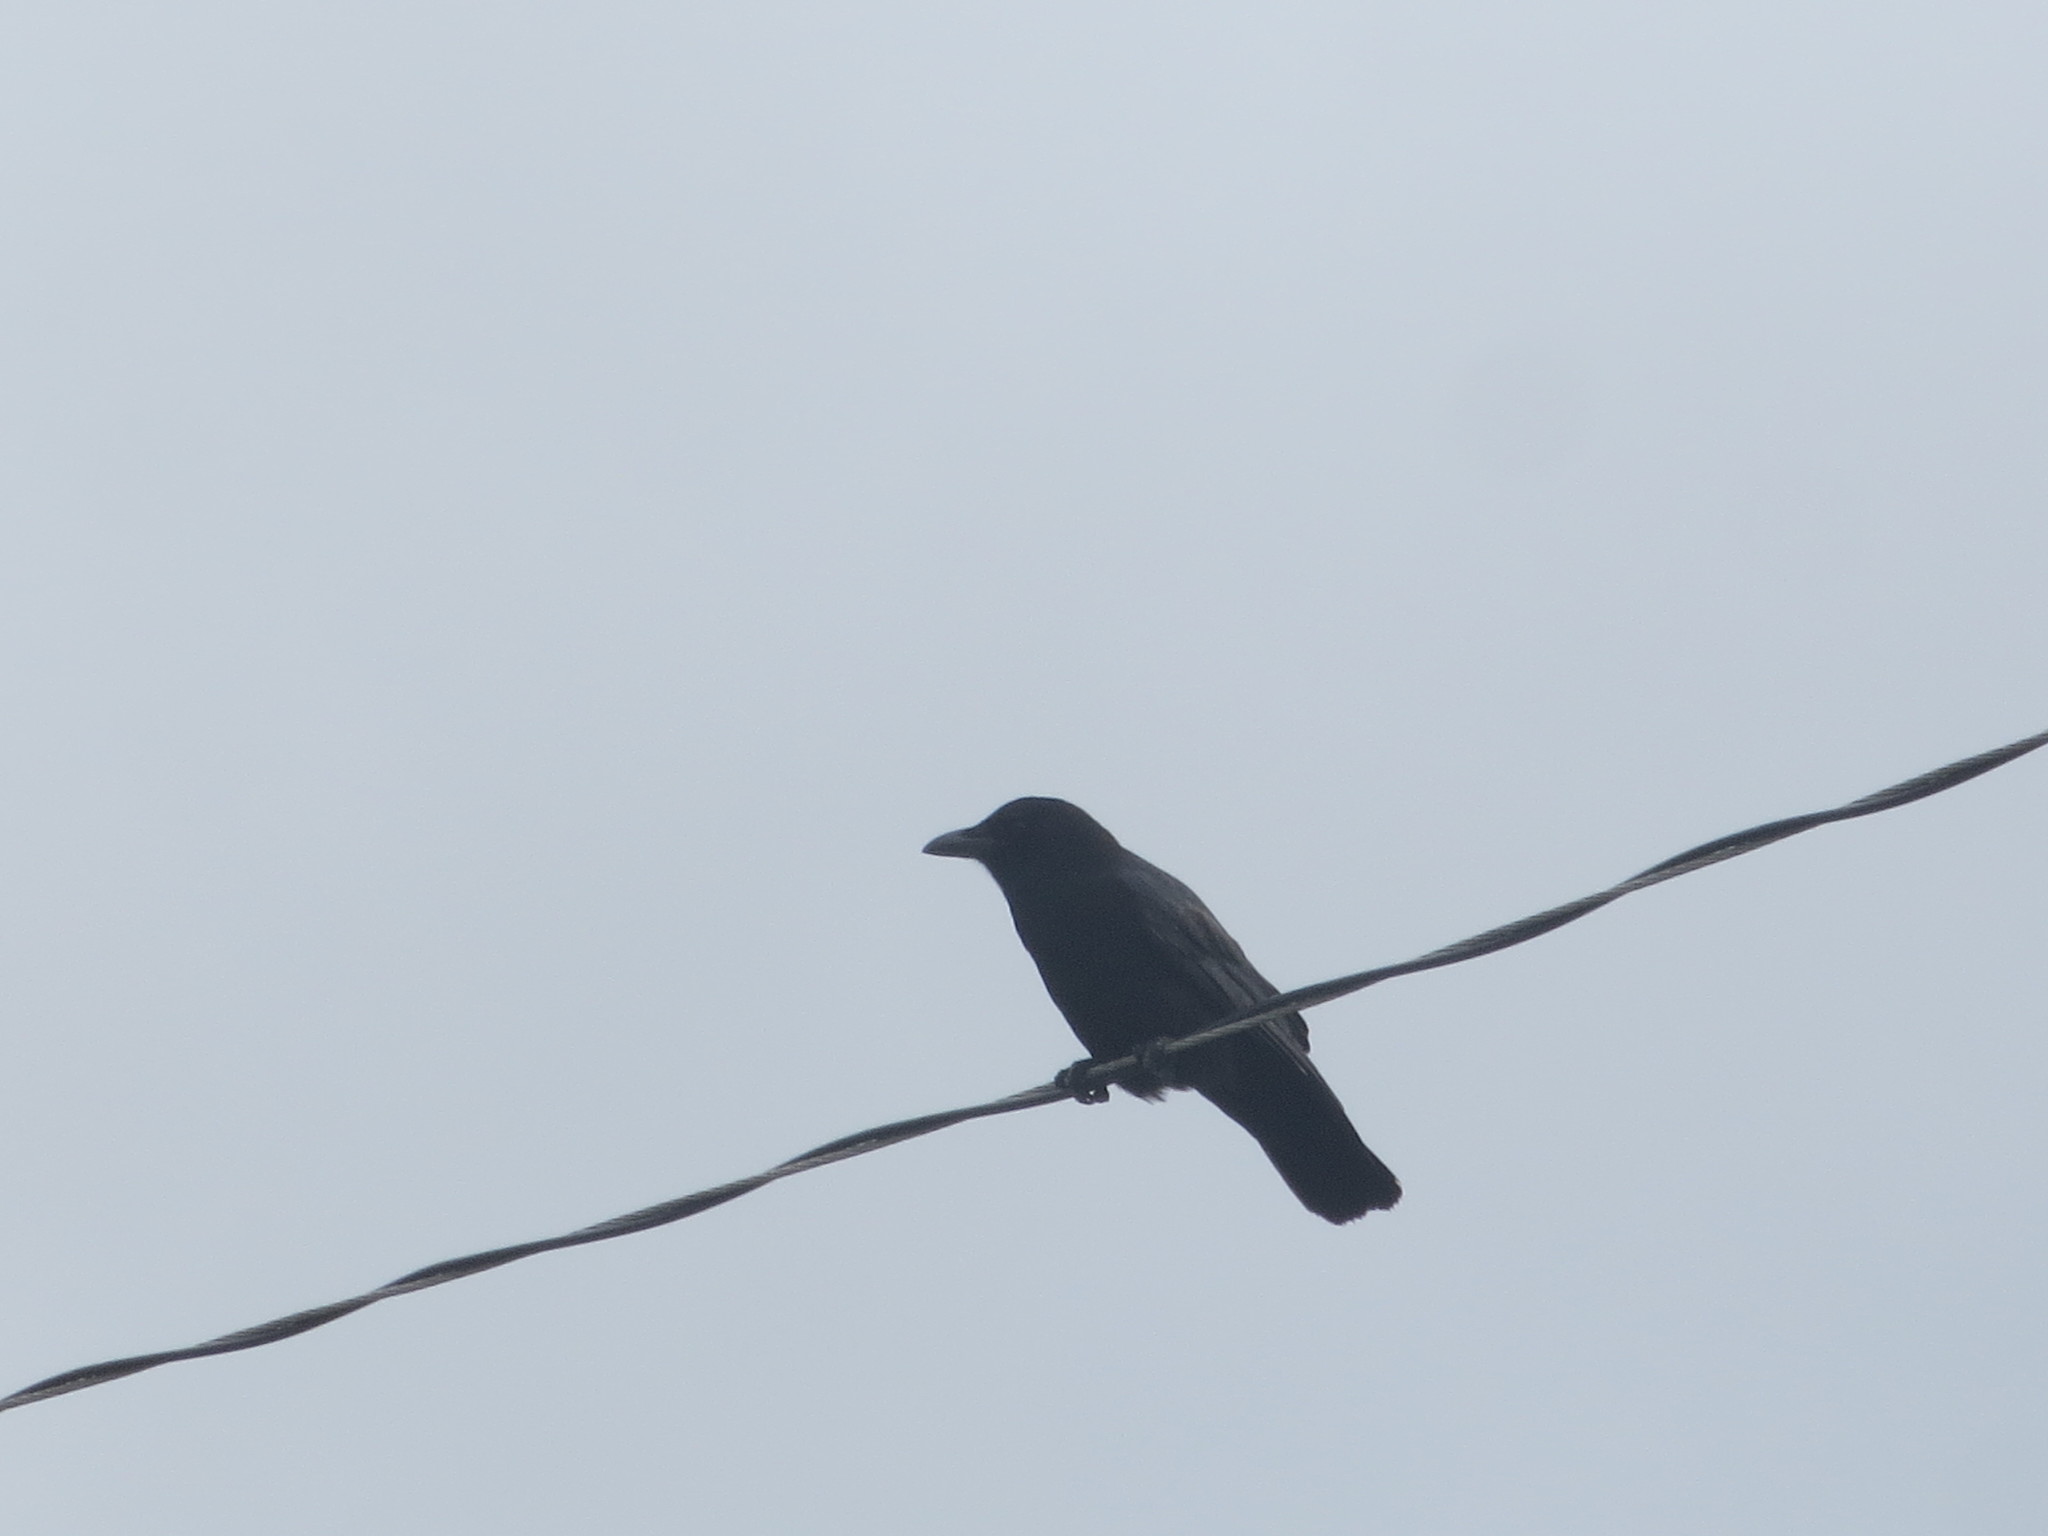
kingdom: Animalia
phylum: Chordata
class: Aves
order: Passeriformes
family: Corvidae
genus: Corvus
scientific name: Corvus brachyrhynchos
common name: American crow
